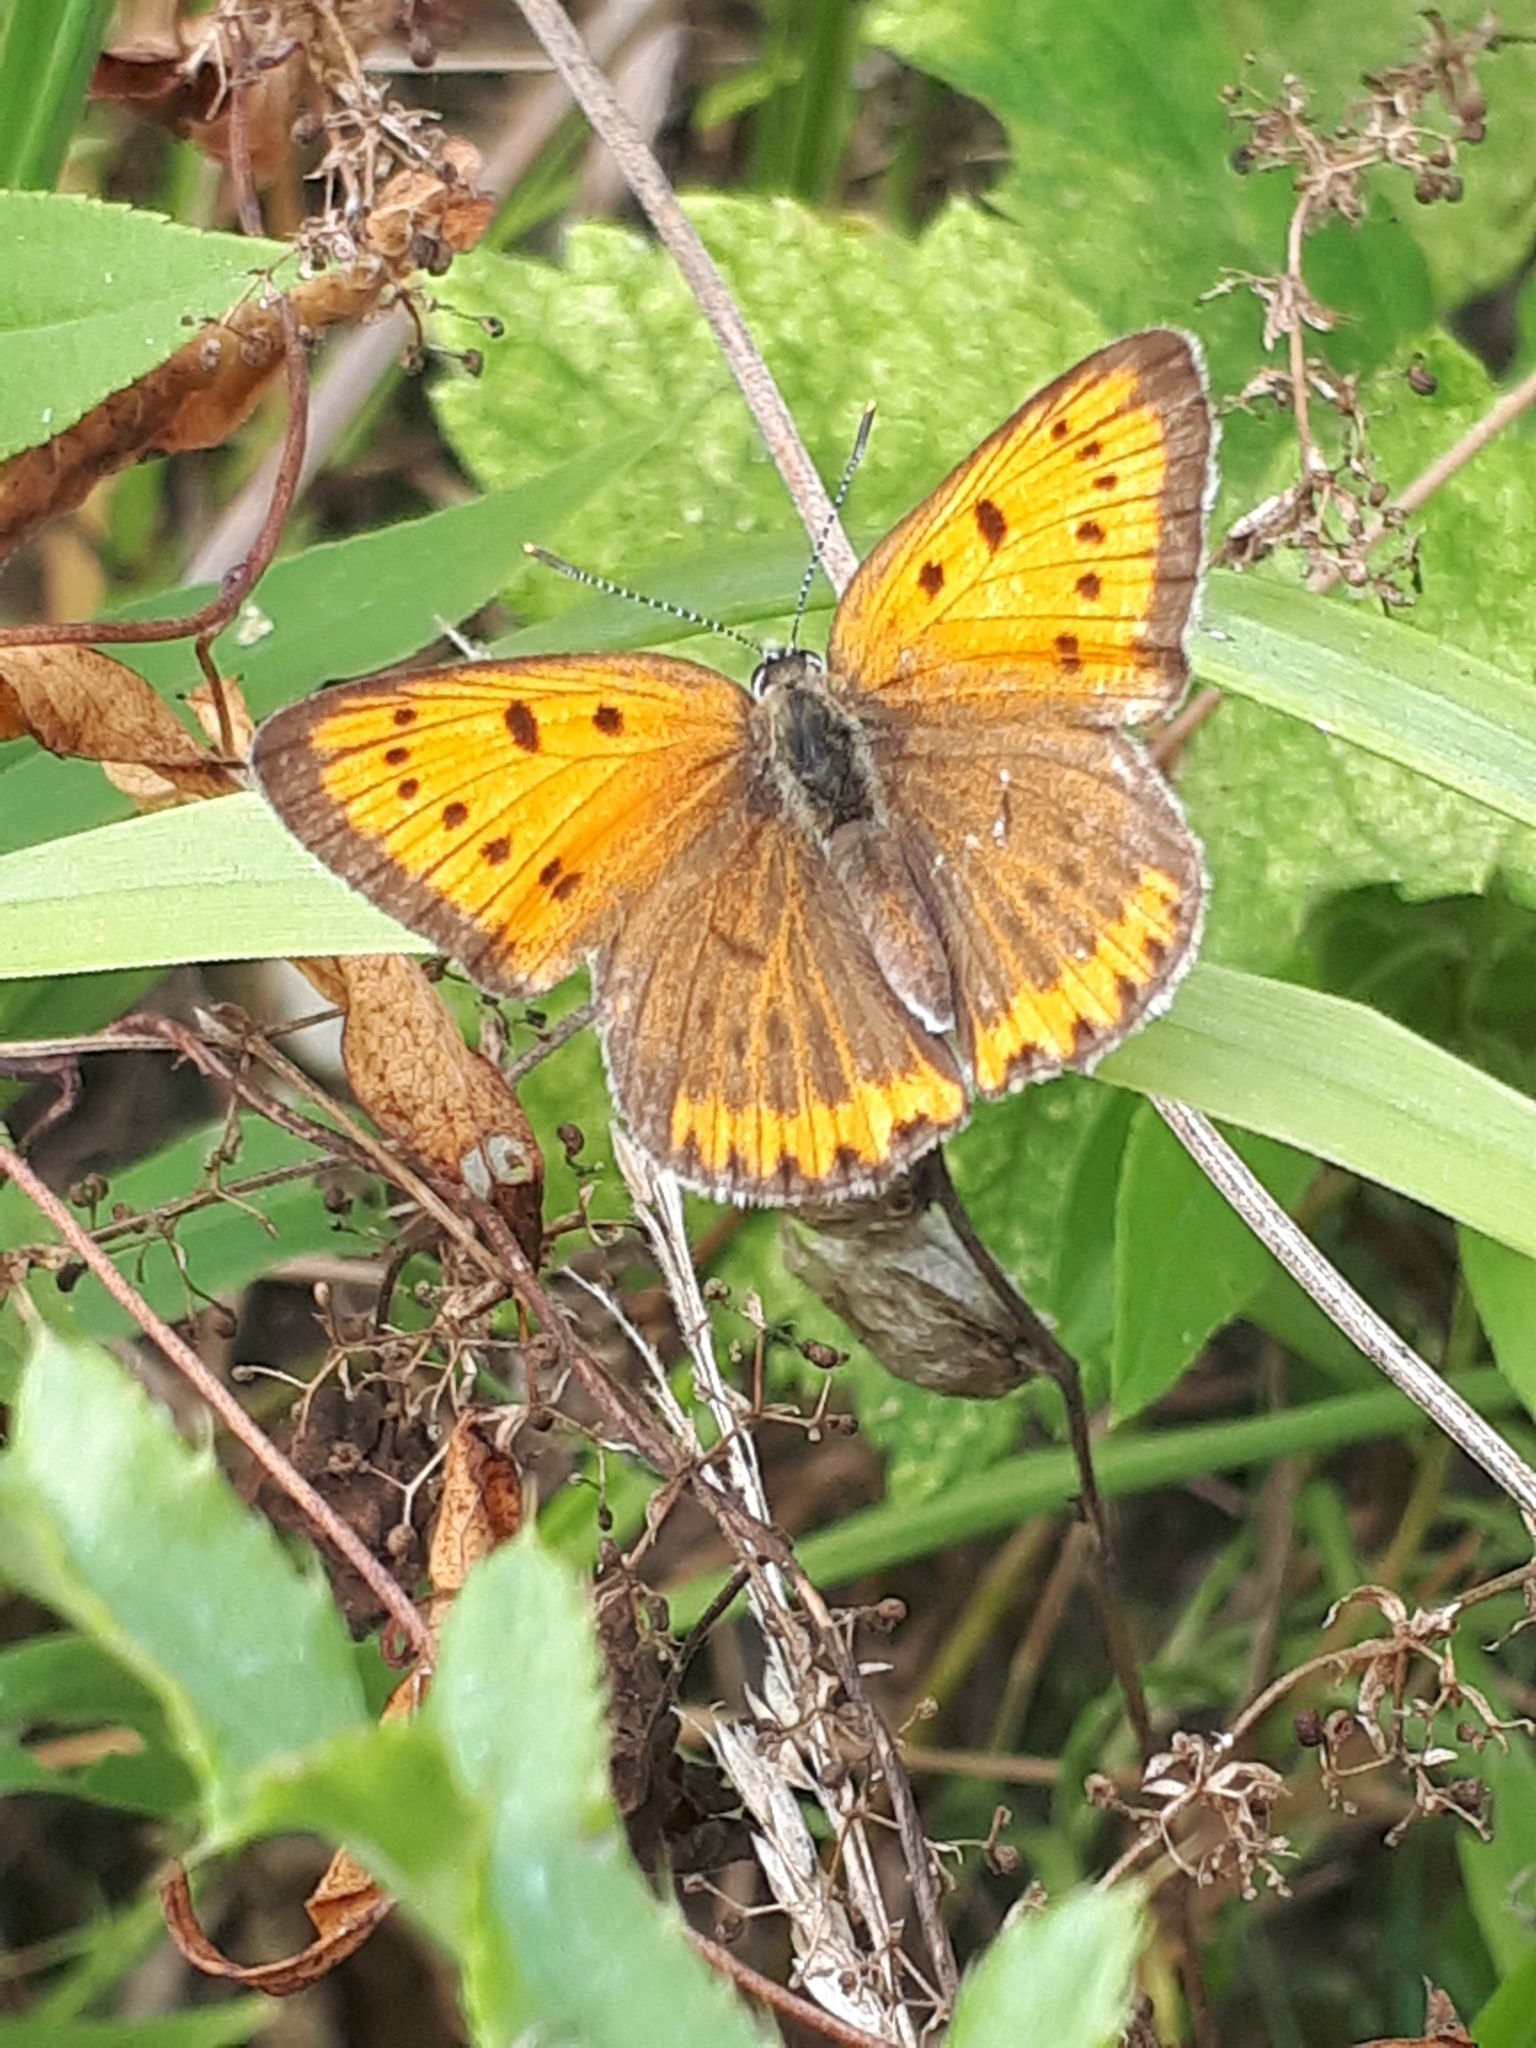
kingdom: Animalia
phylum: Arthropoda
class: Insecta
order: Lepidoptera
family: Lycaenidae
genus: Lycaena
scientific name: Lycaena dispar
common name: Large copper
